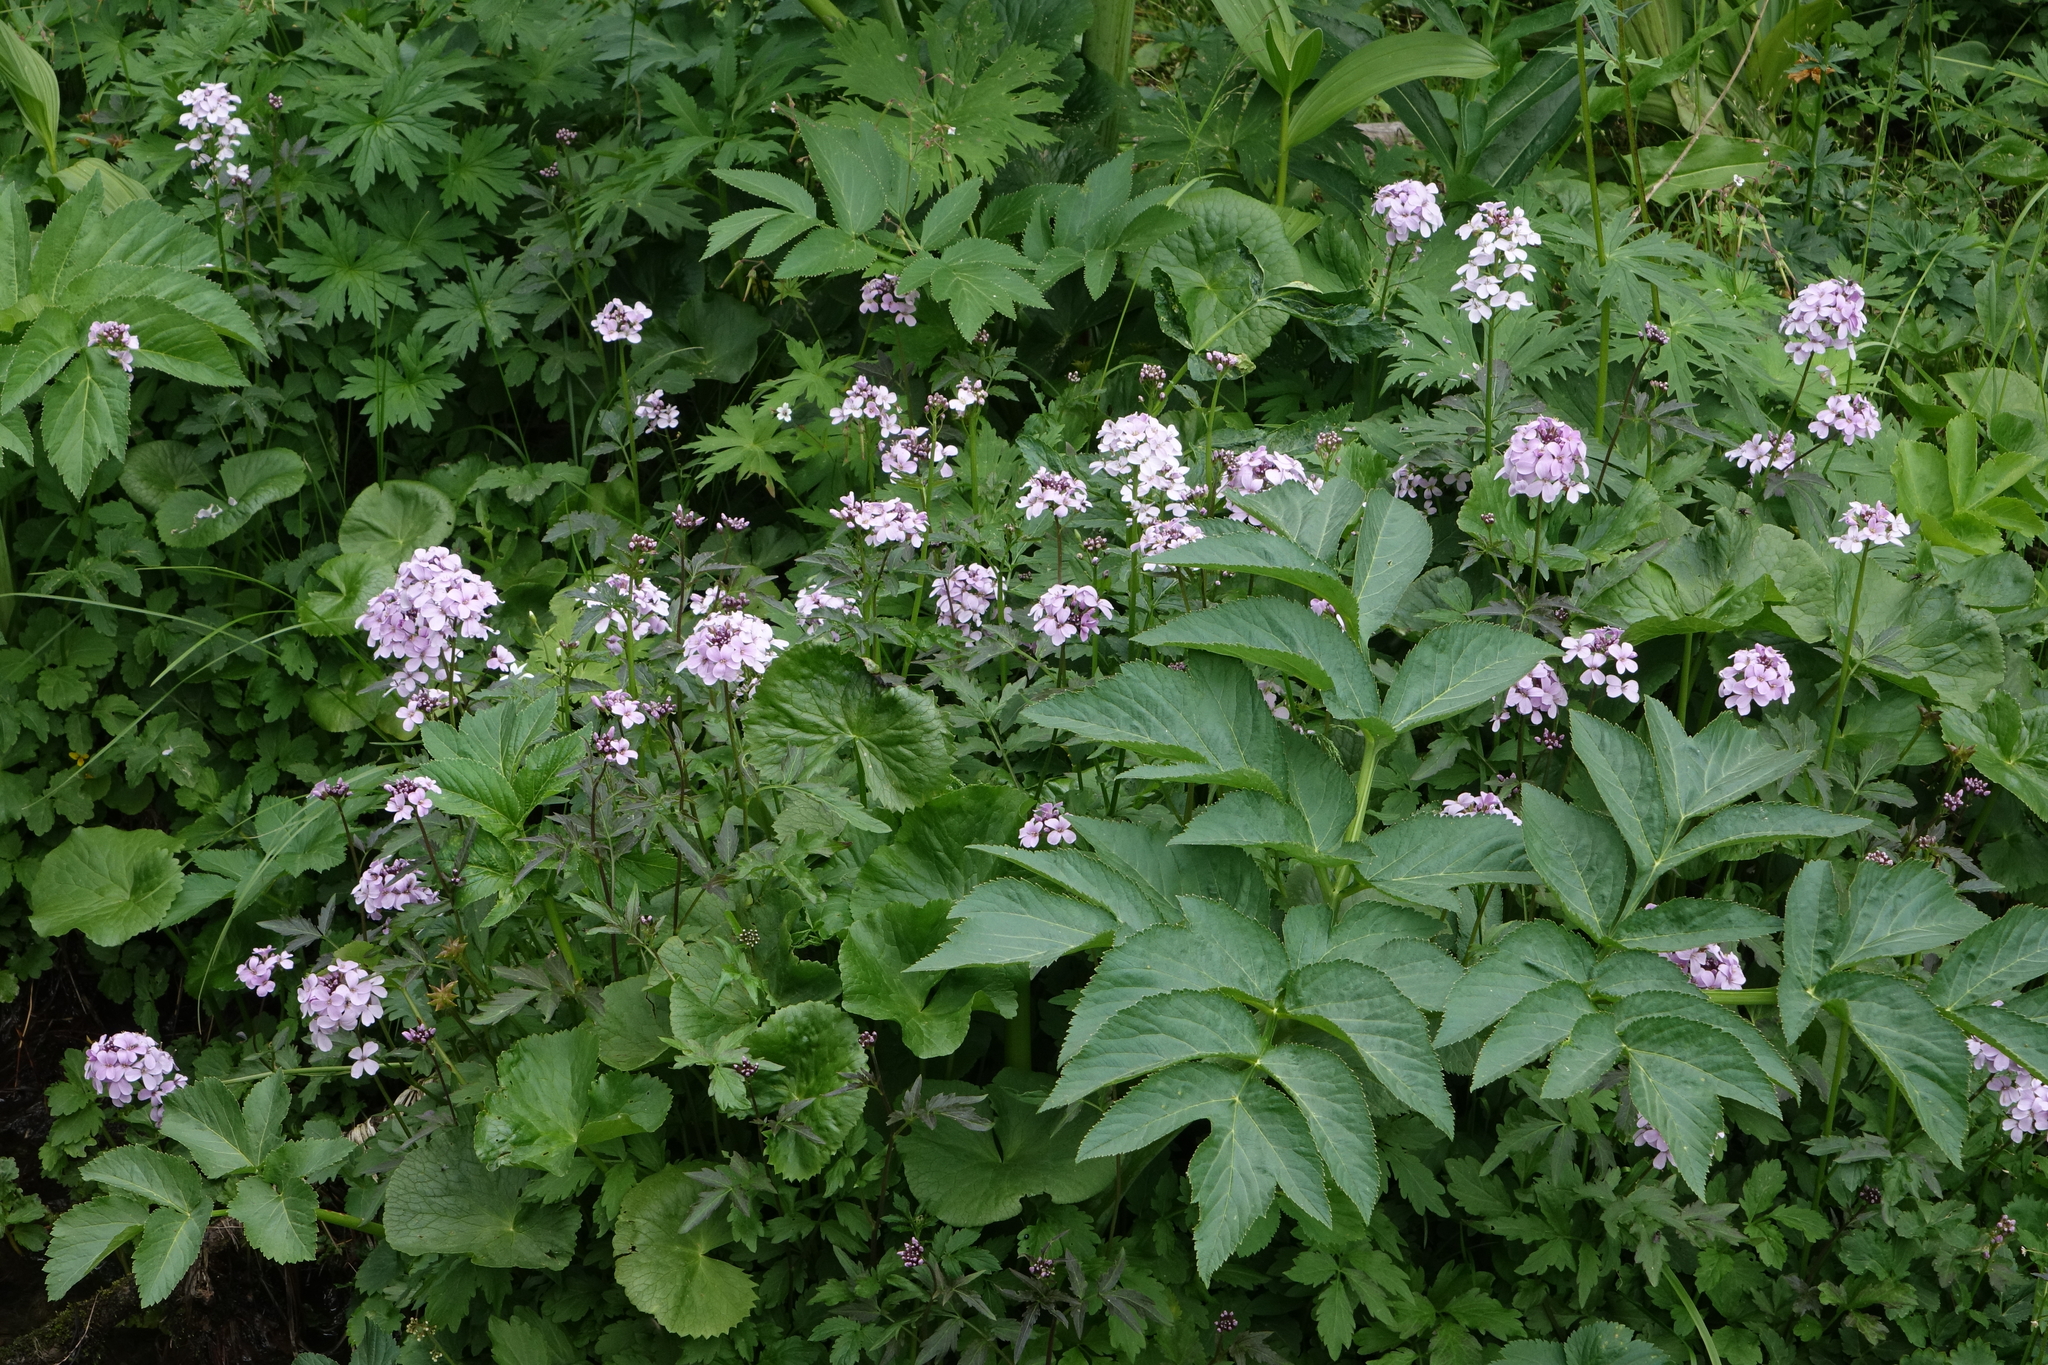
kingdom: Plantae
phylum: Tracheophyta
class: Magnoliopsida
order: Apiales
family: Apiaceae
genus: Angelica
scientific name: Angelica decurrens
